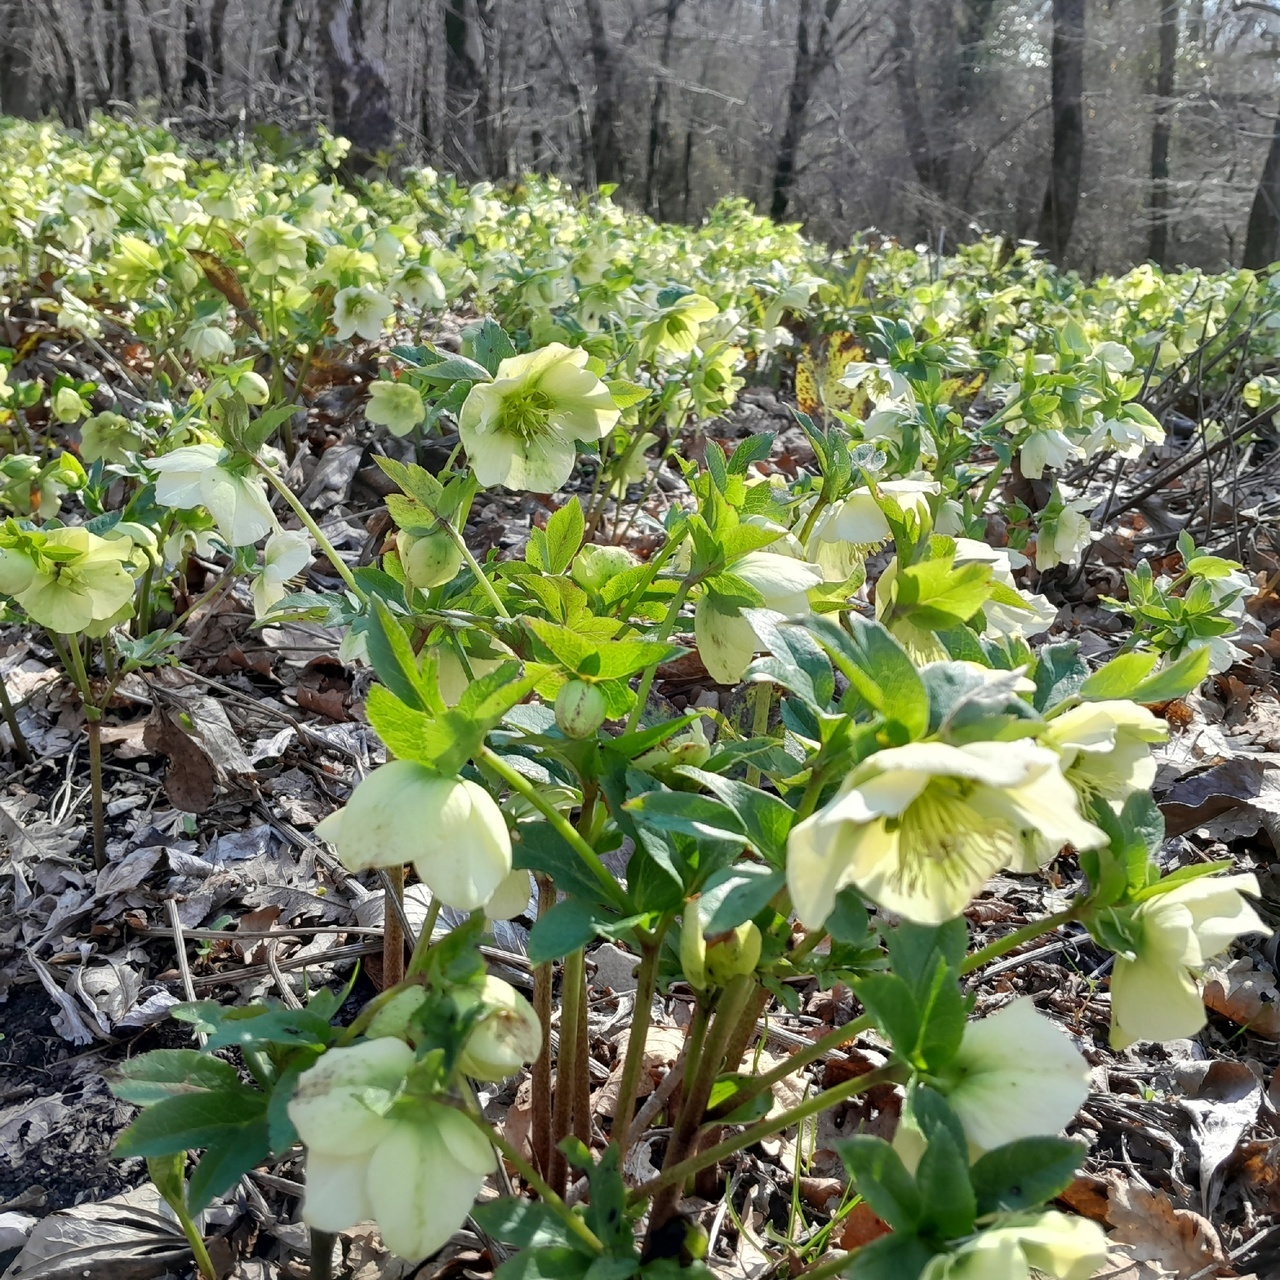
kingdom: Plantae
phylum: Tracheophyta
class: Magnoliopsida
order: Ranunculales
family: Ranunculaceae
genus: Helleborus
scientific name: Helleborus orientalis
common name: Lenten-rose
